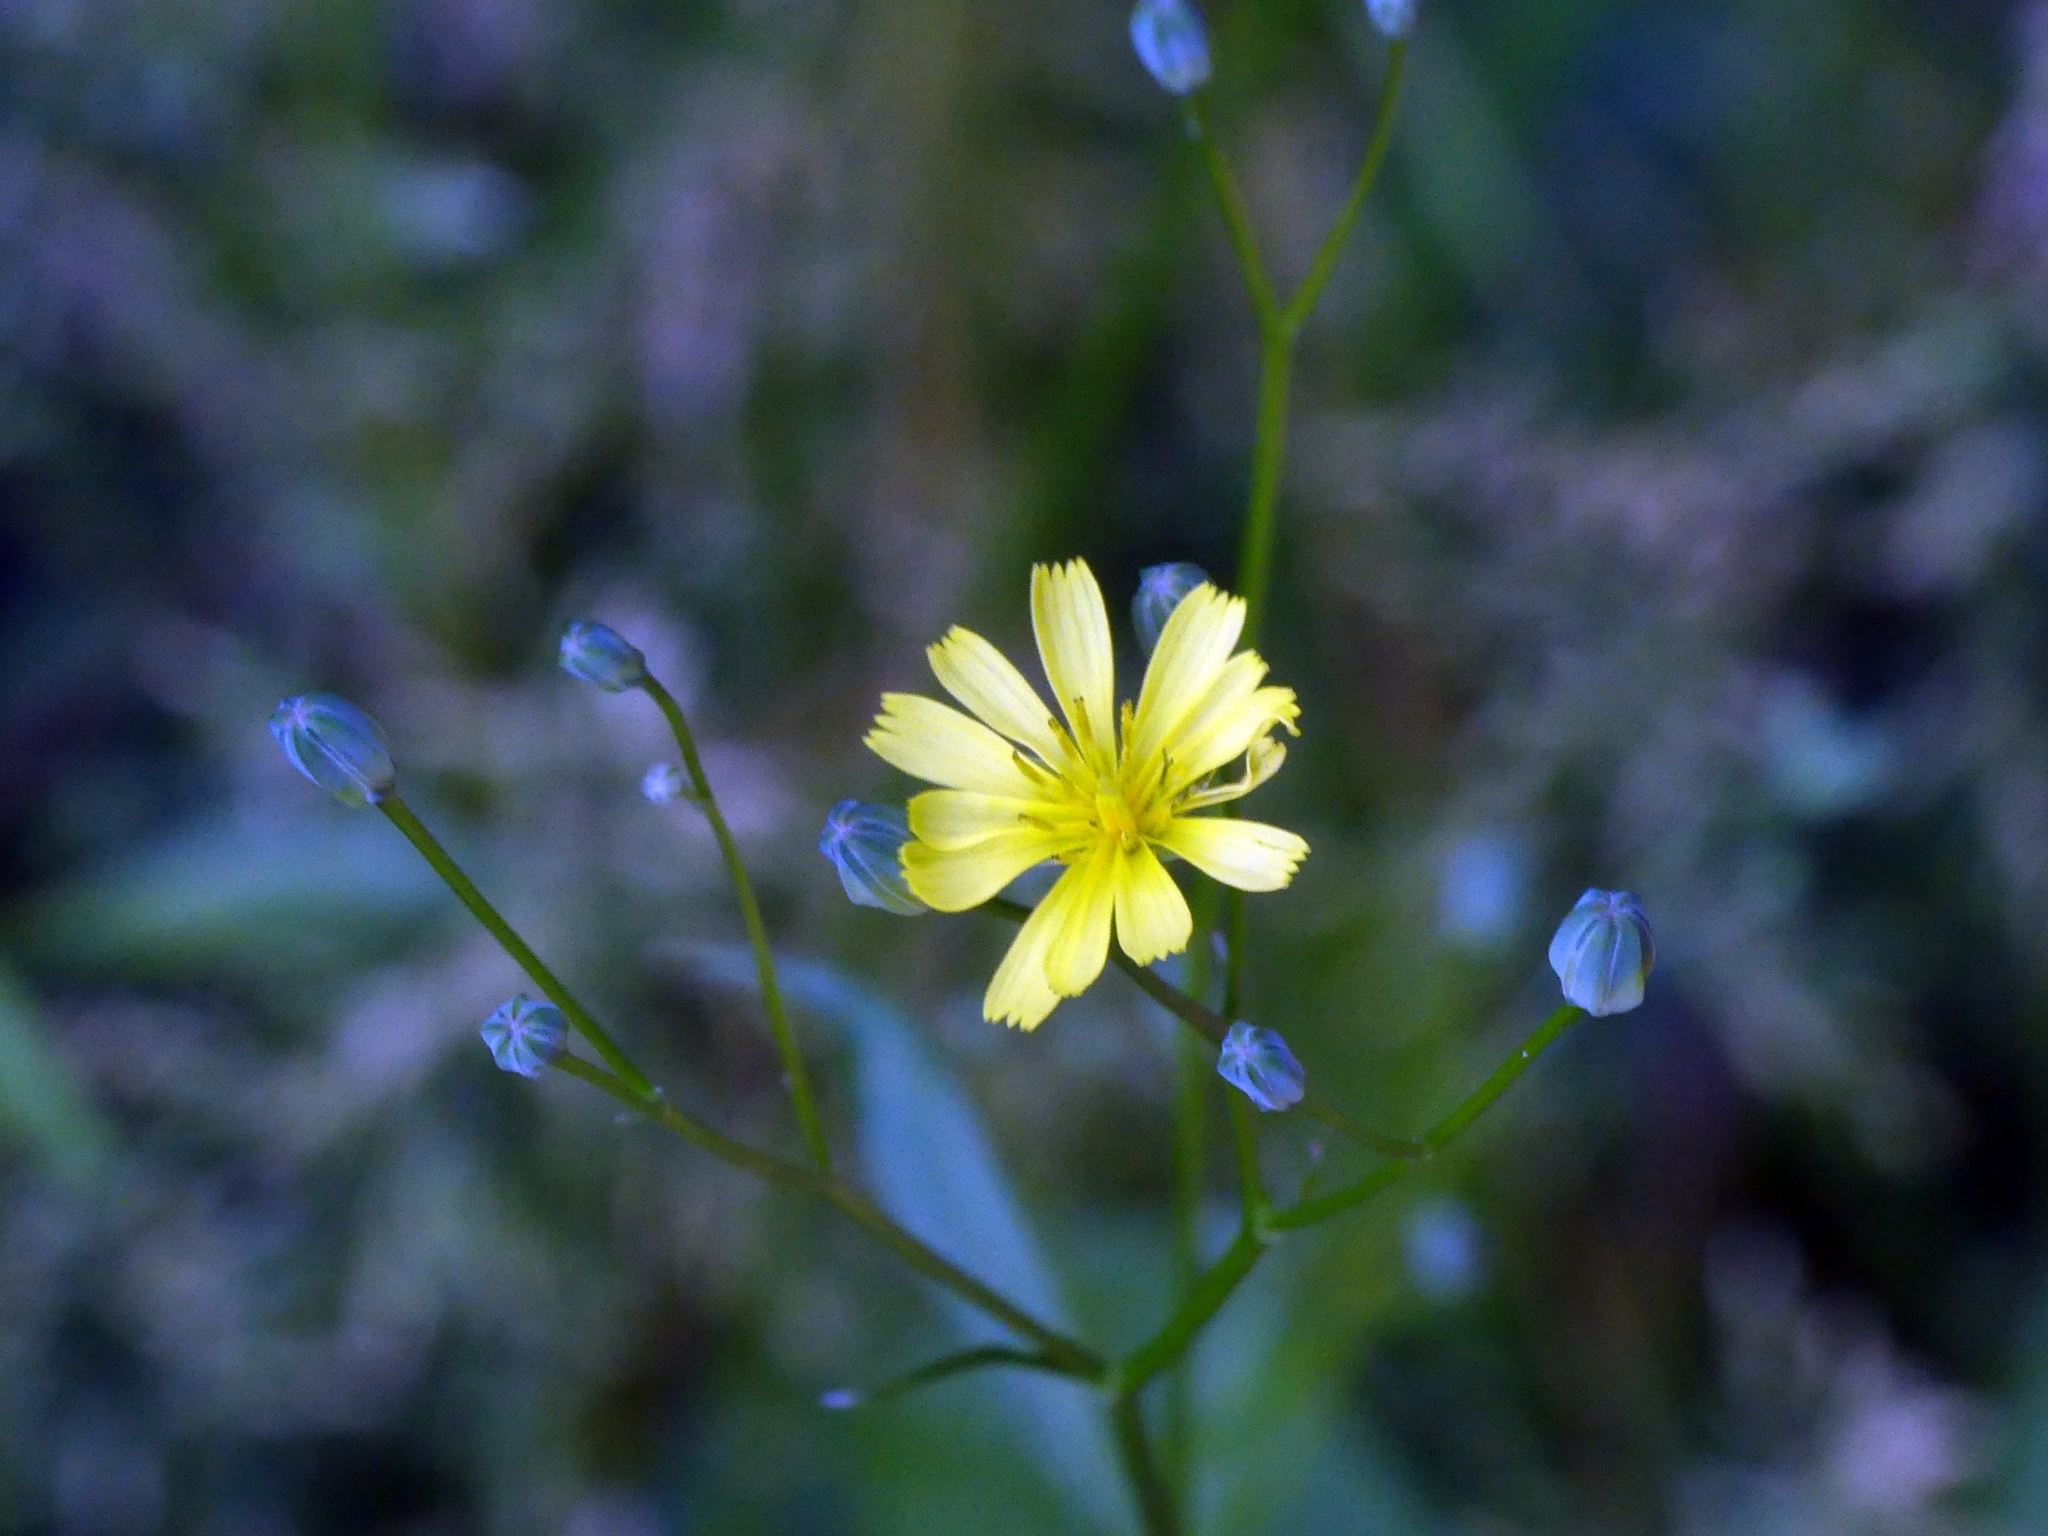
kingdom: Plantae
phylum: Tracheophyta
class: Magnoliopsida
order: Asterales
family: Asteraceae
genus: Lapsana
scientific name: Lapsana communis
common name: Nipplewort
